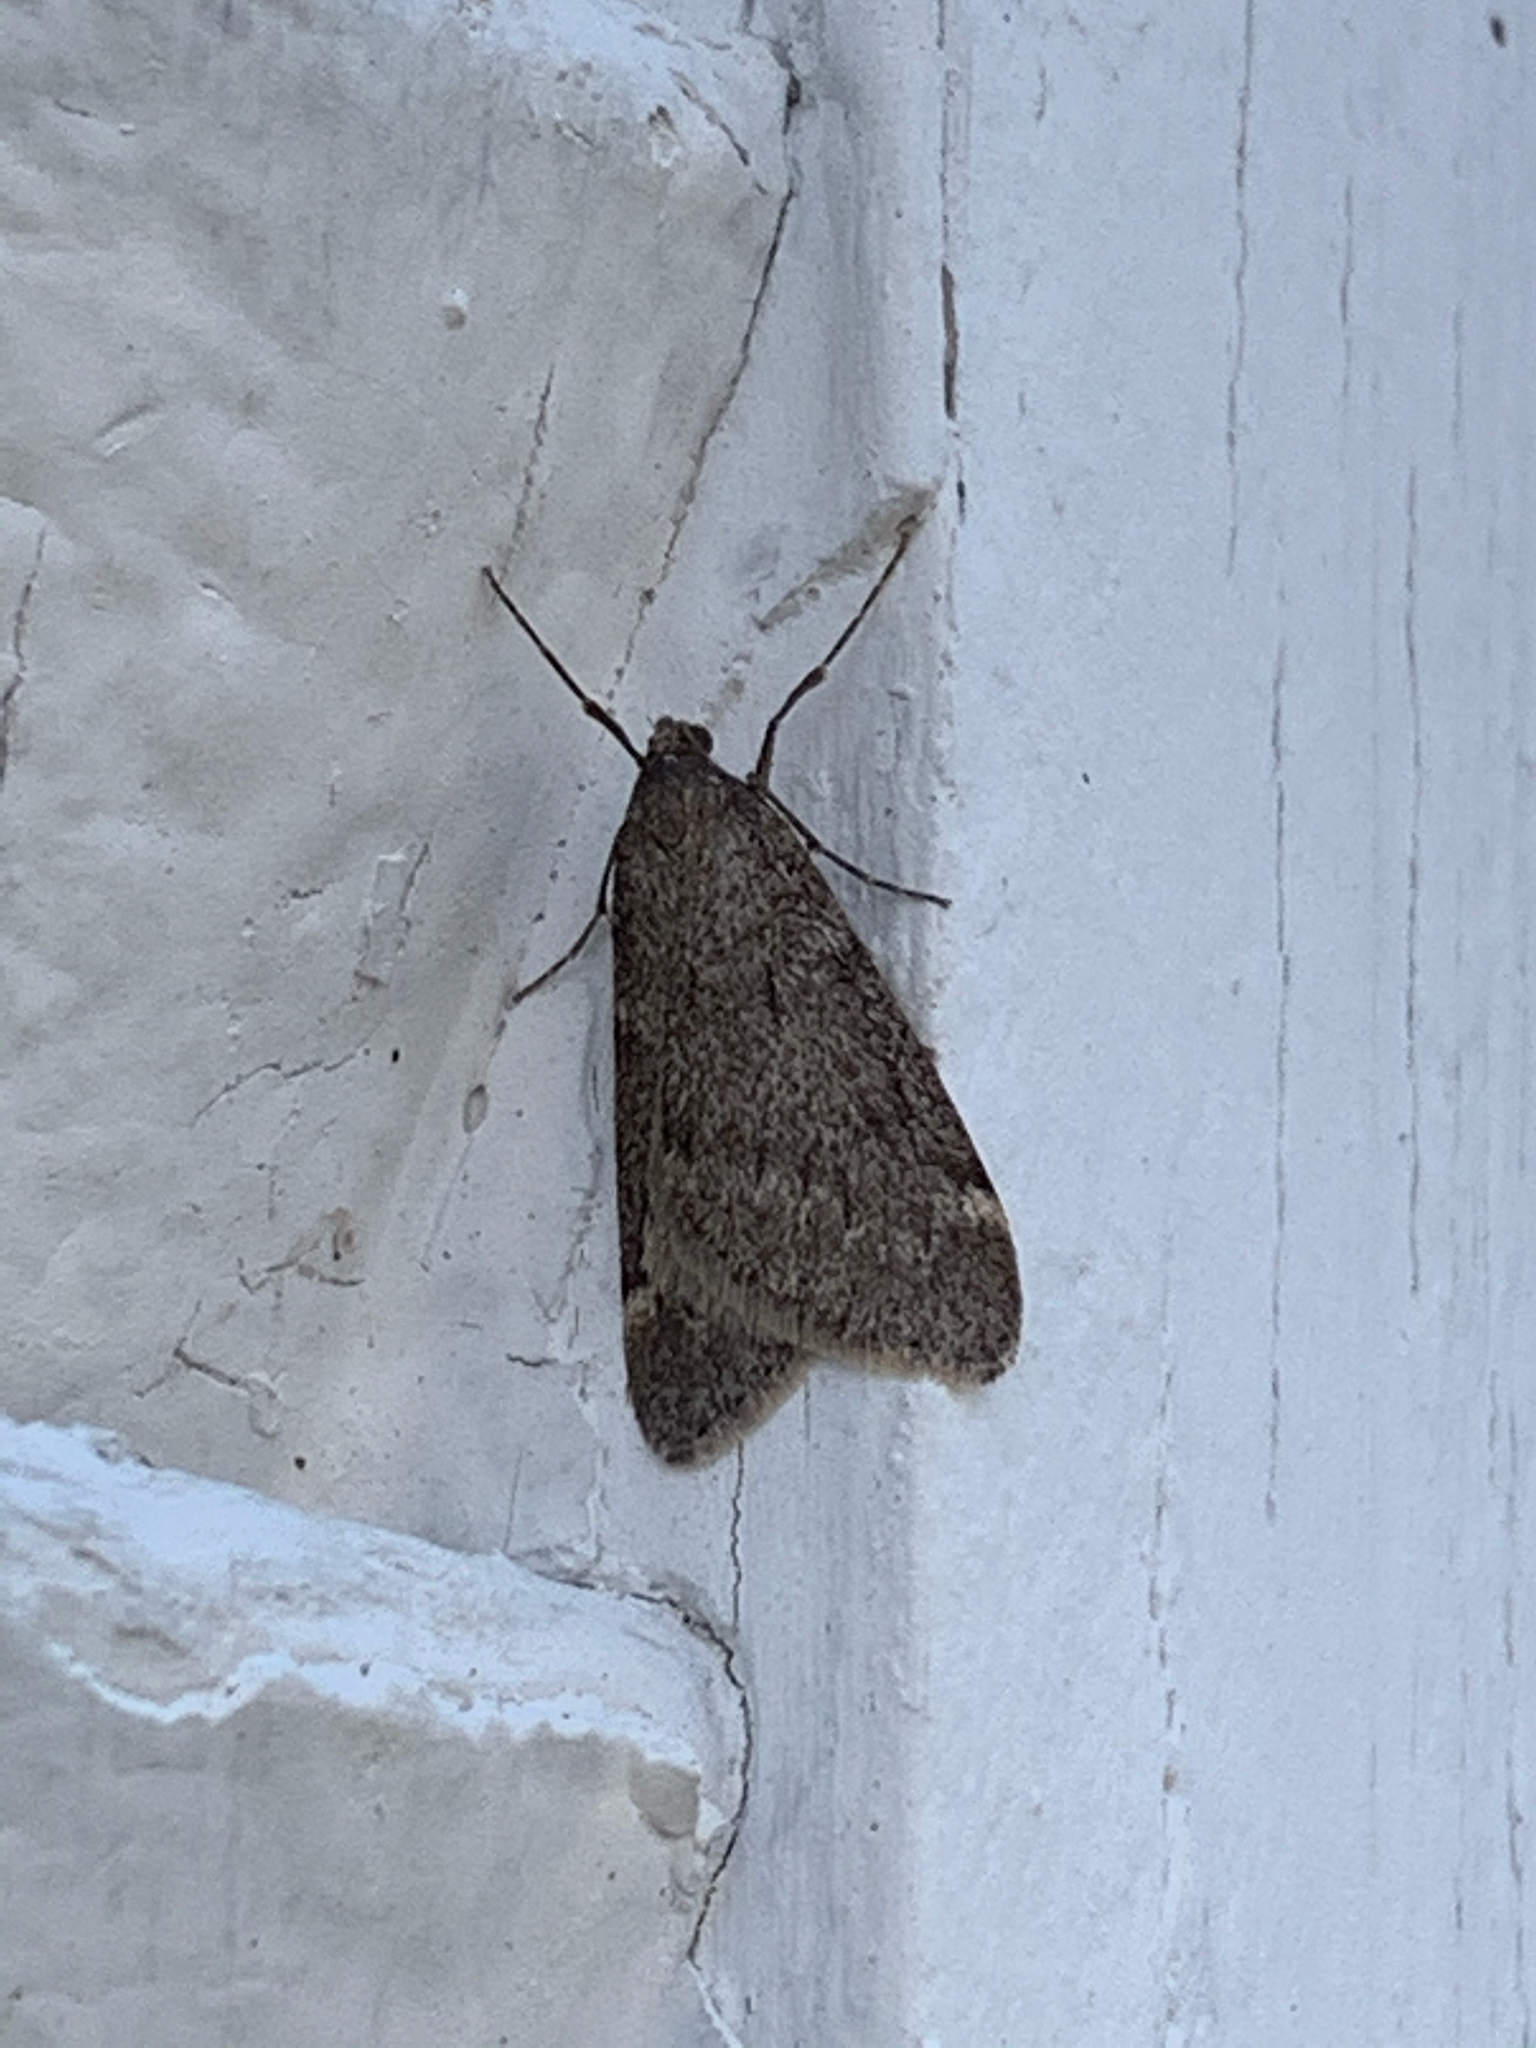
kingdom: Animalia
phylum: Arthropoda
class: Insecta
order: Lepidoptera
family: Geometridae
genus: Alsophila
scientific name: Alsophila pometaria
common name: Fall cankerworm
